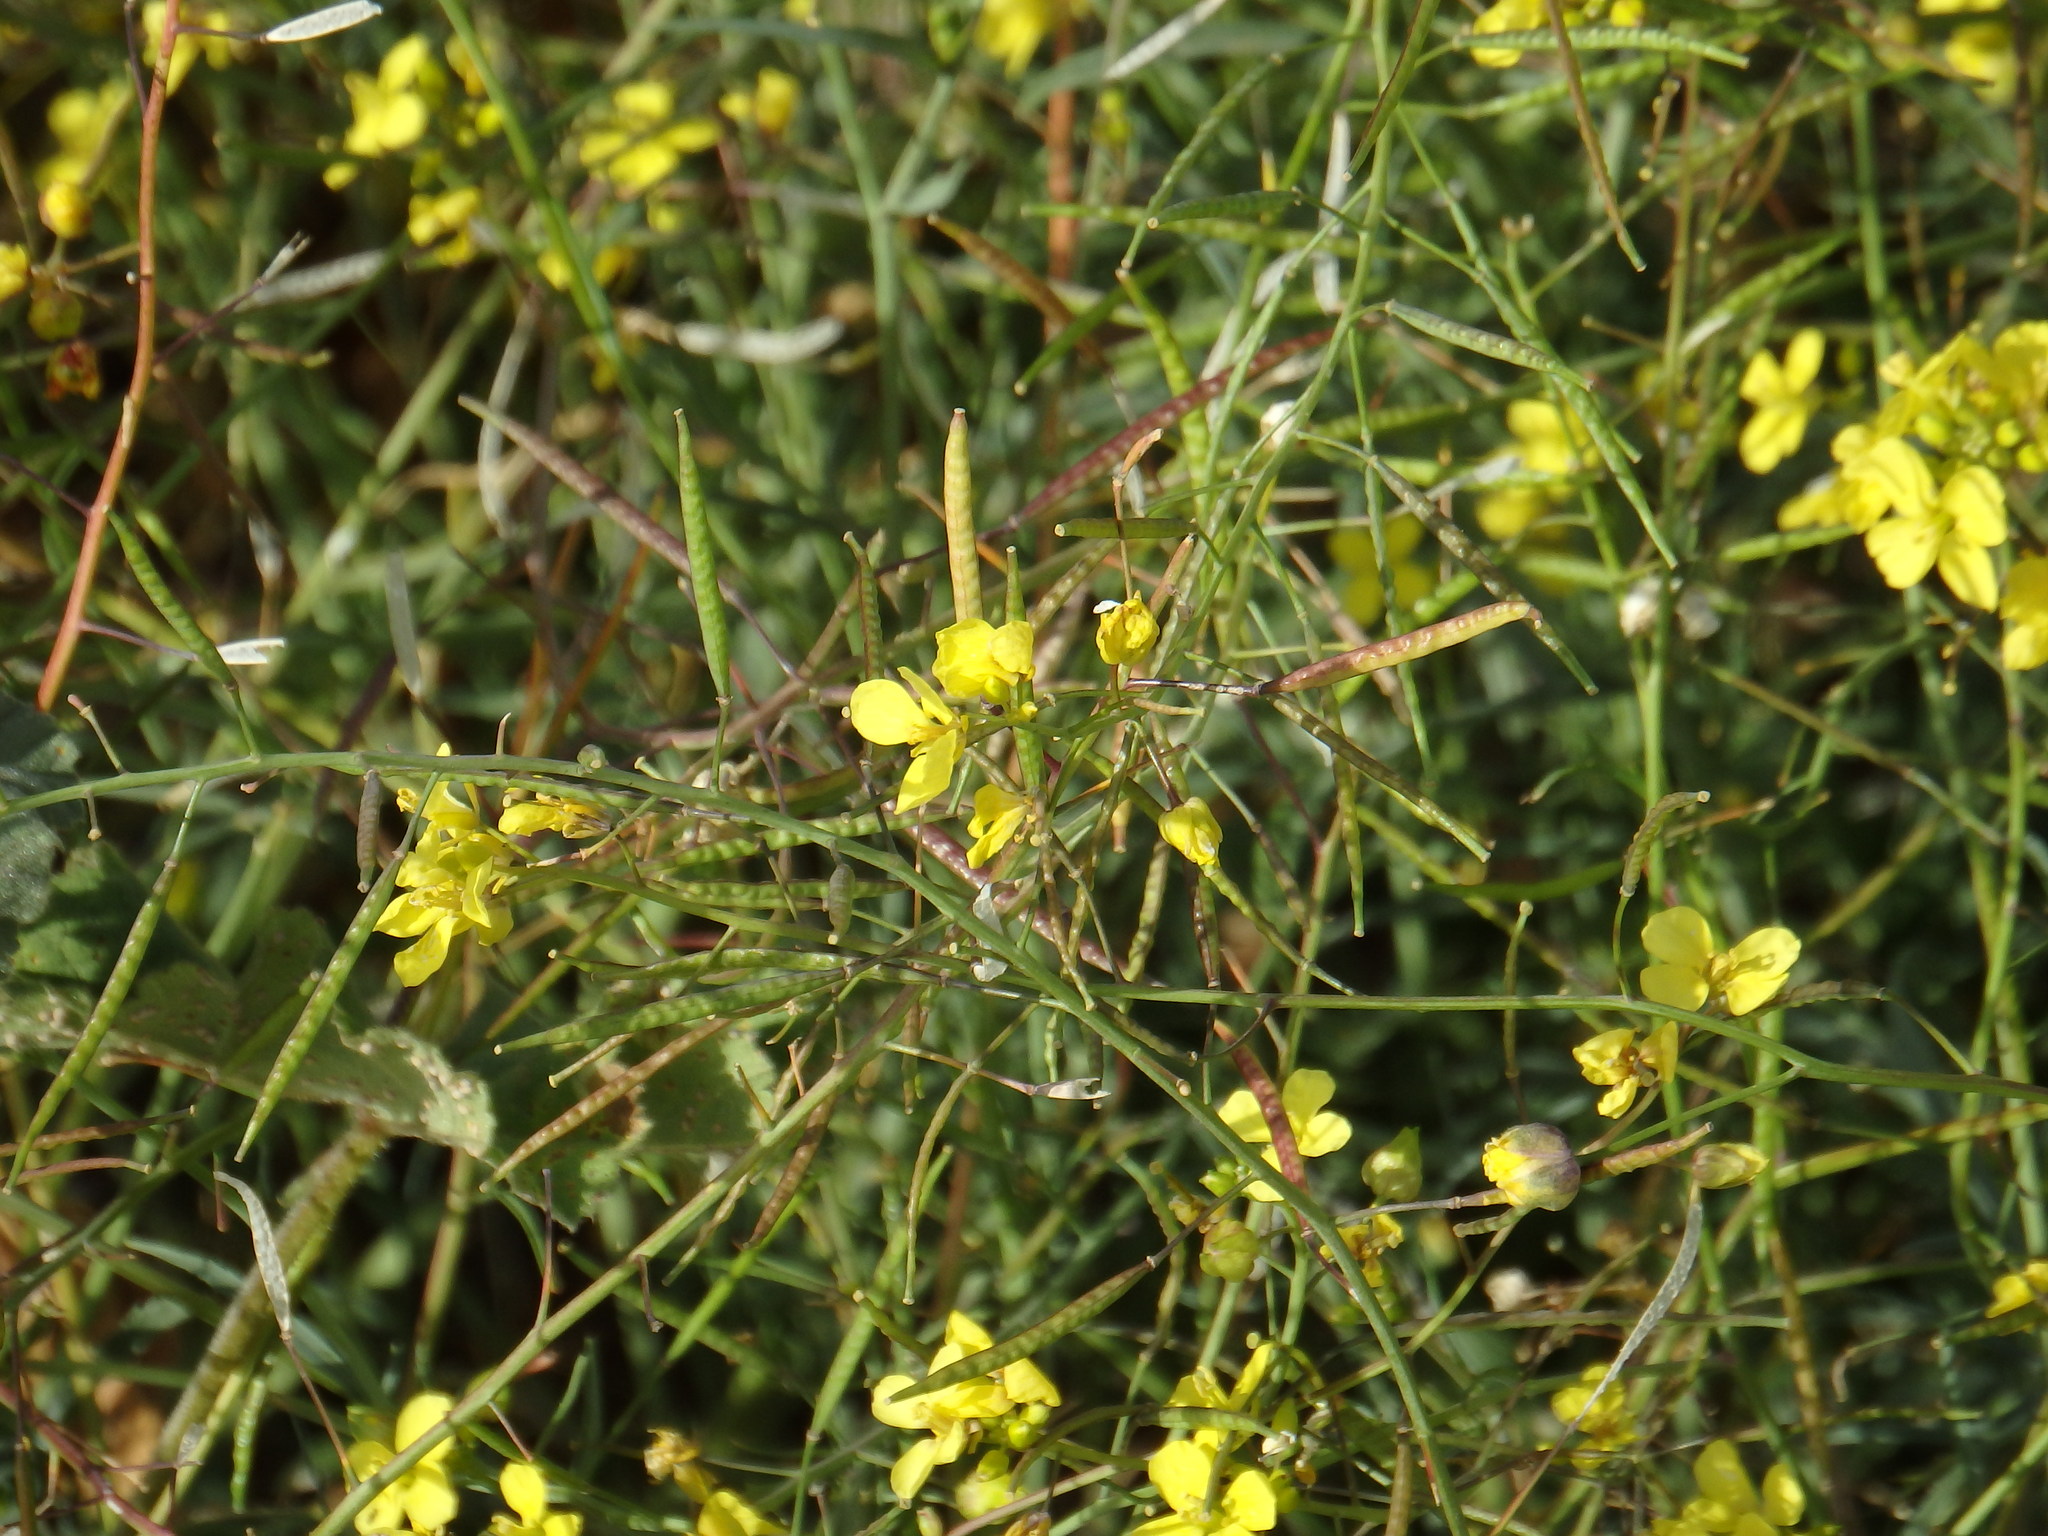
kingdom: Plantae
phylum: Tracheophyta
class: Magnoliopsida
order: Brassicales
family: Brassicaceae
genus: Diplotaxis
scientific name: Diplotaxis catholica
